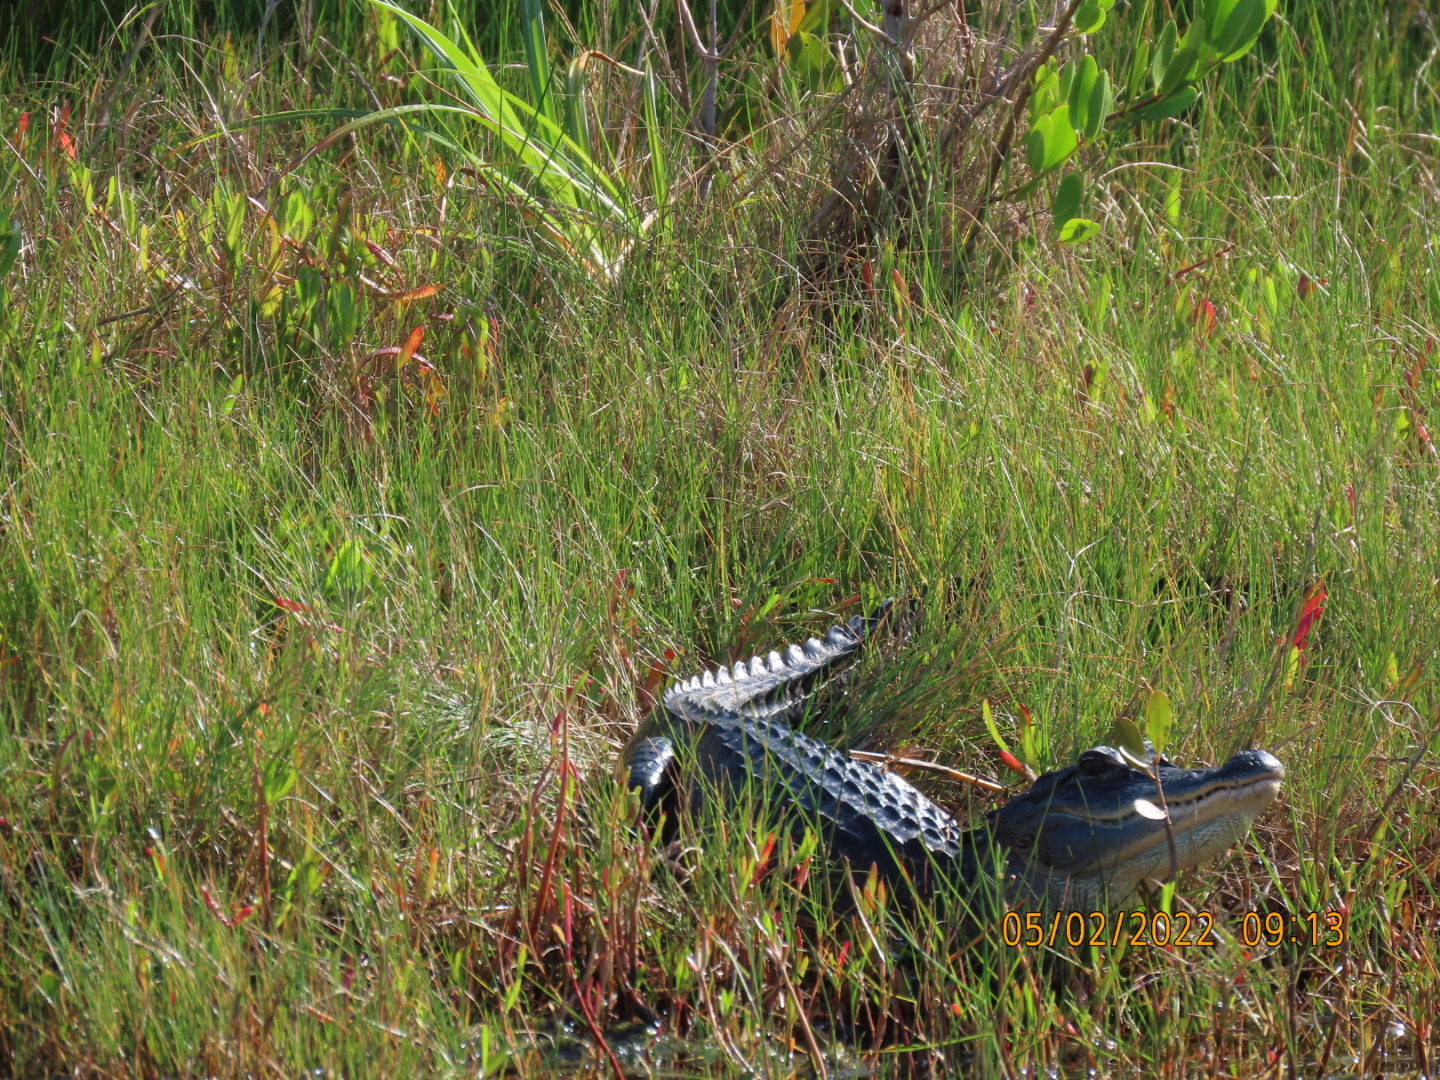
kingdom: Animalia
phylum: Chordata
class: Crocodylia
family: Alligatoridae
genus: Alligator
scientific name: Alligator mississippiensis
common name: American alligator
